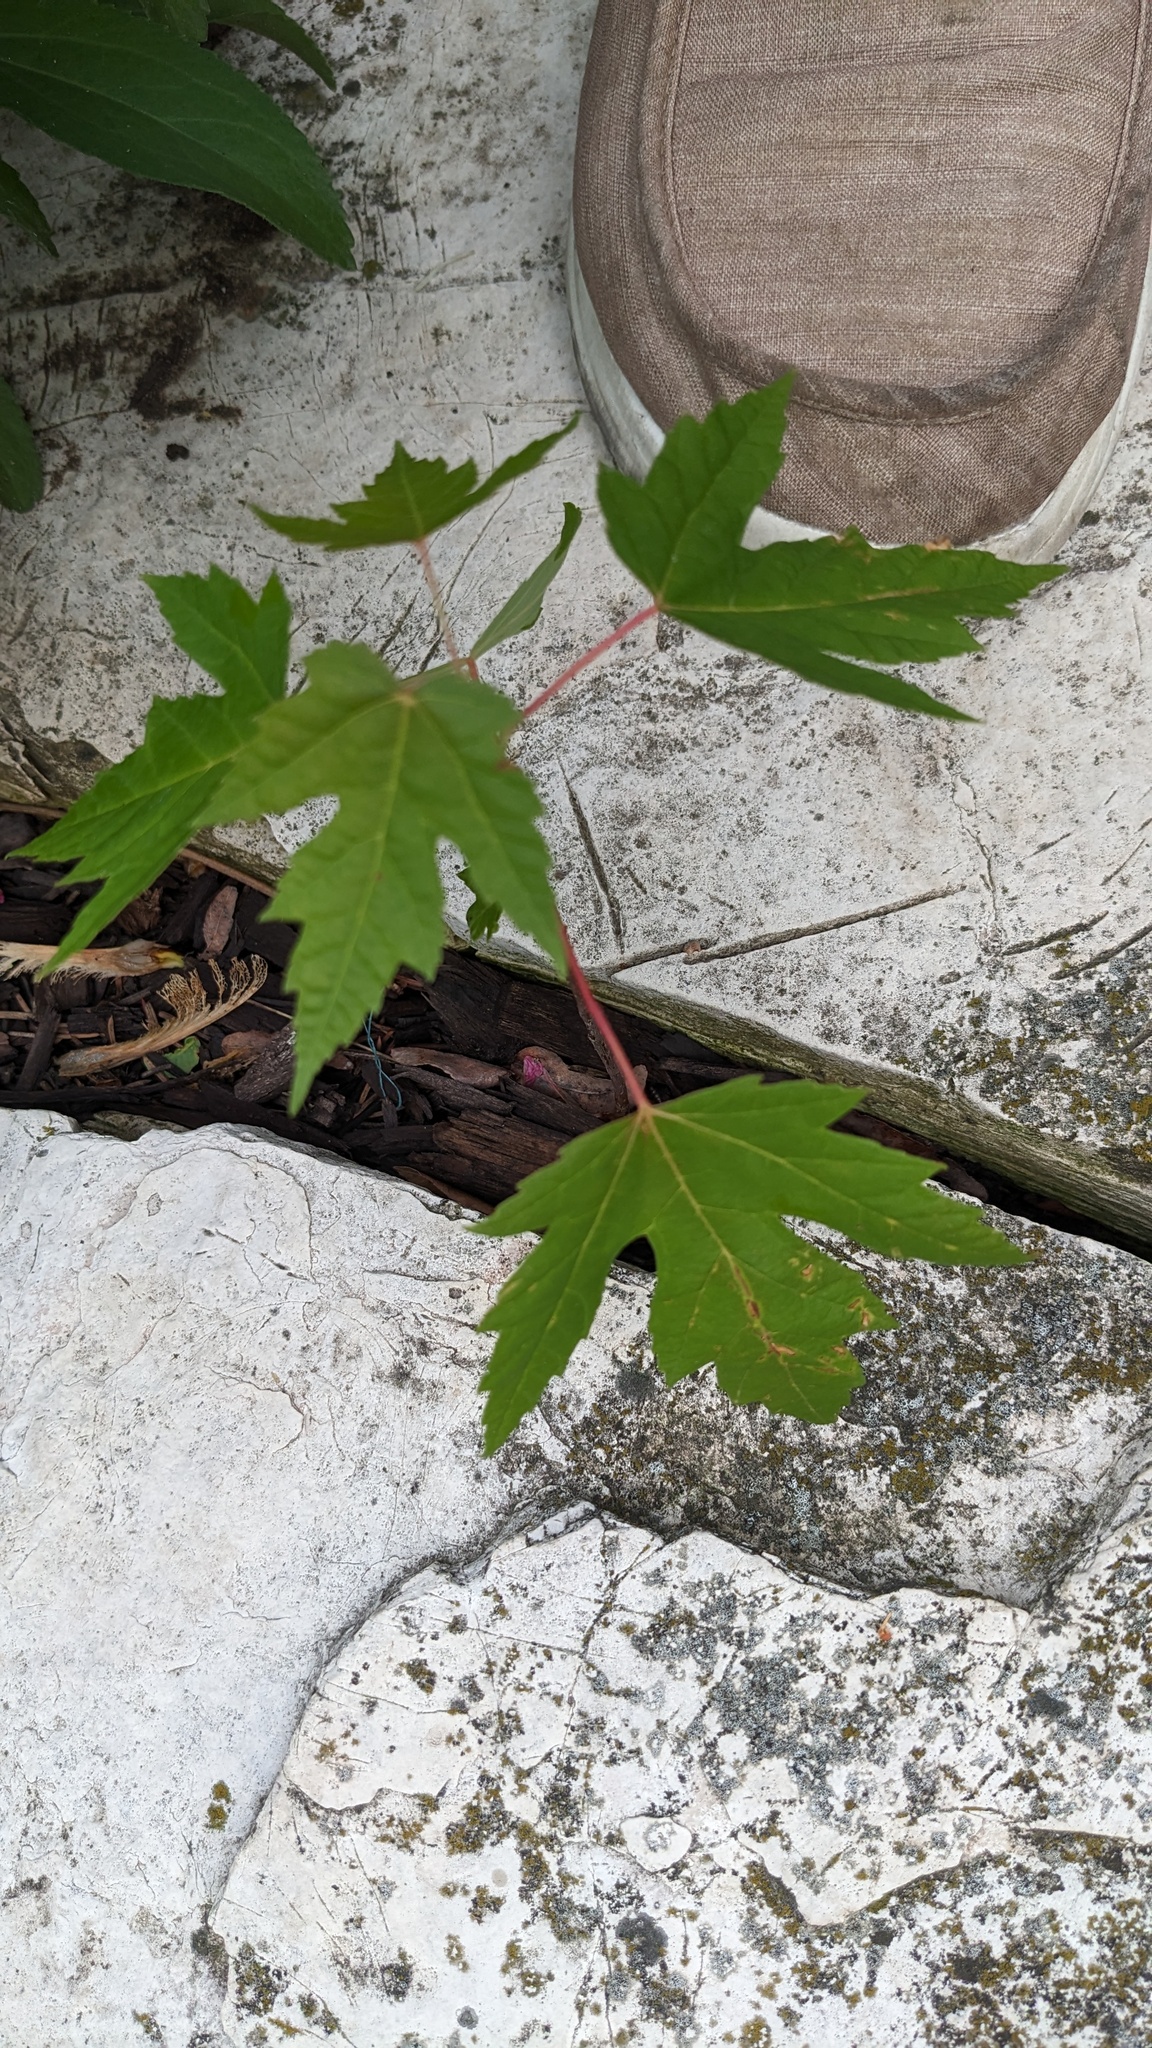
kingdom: Plantae
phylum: Tracheophyta
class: Magnoliopsida
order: Sapindales
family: Sapindaceae
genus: Acer
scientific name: Acer saccharinum
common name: Silver maple
